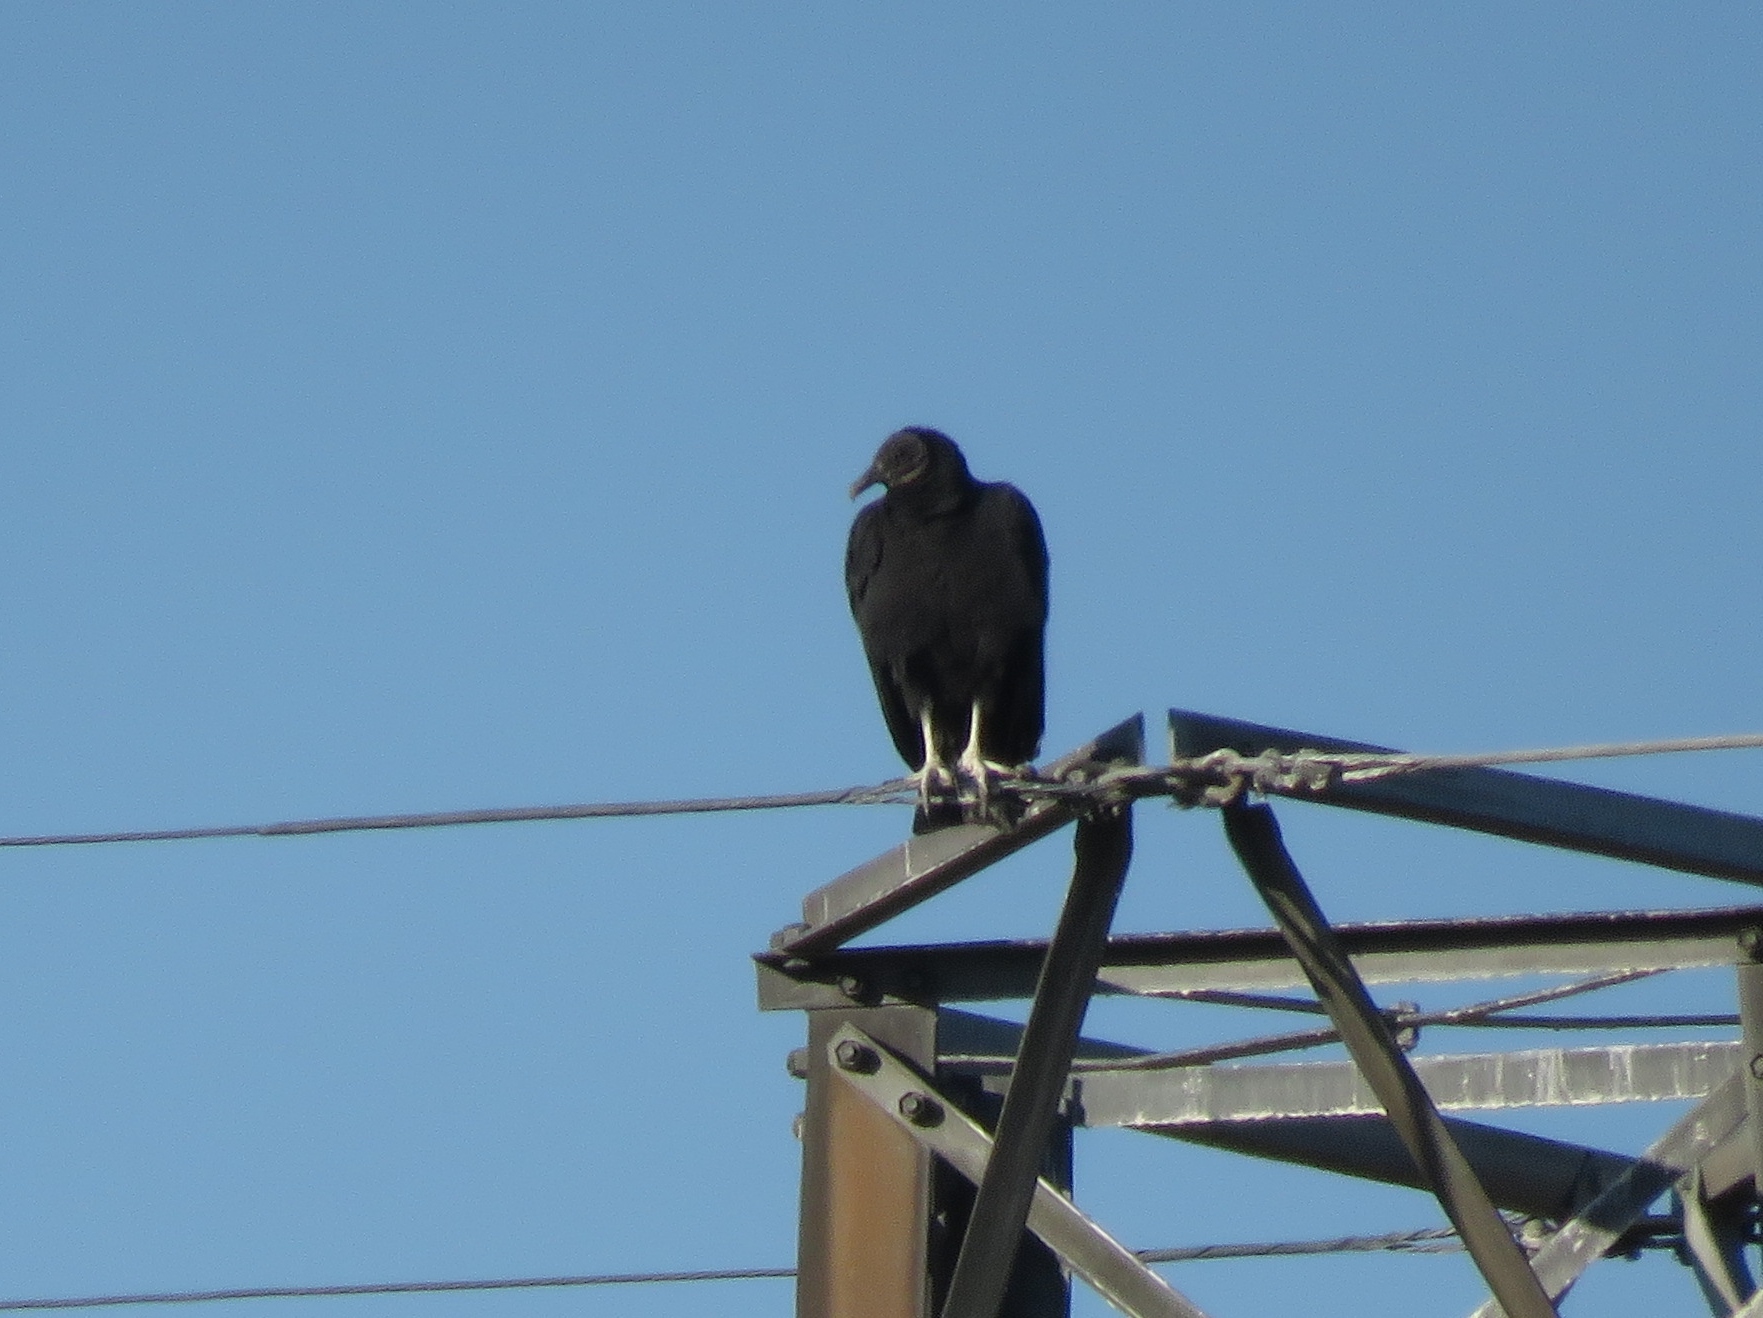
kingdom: Animalia
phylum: Chordata
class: Aves
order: Accipitriformes
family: Cathartidae
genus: Coragyps
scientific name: Coragyps atratus
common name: Black vulture
